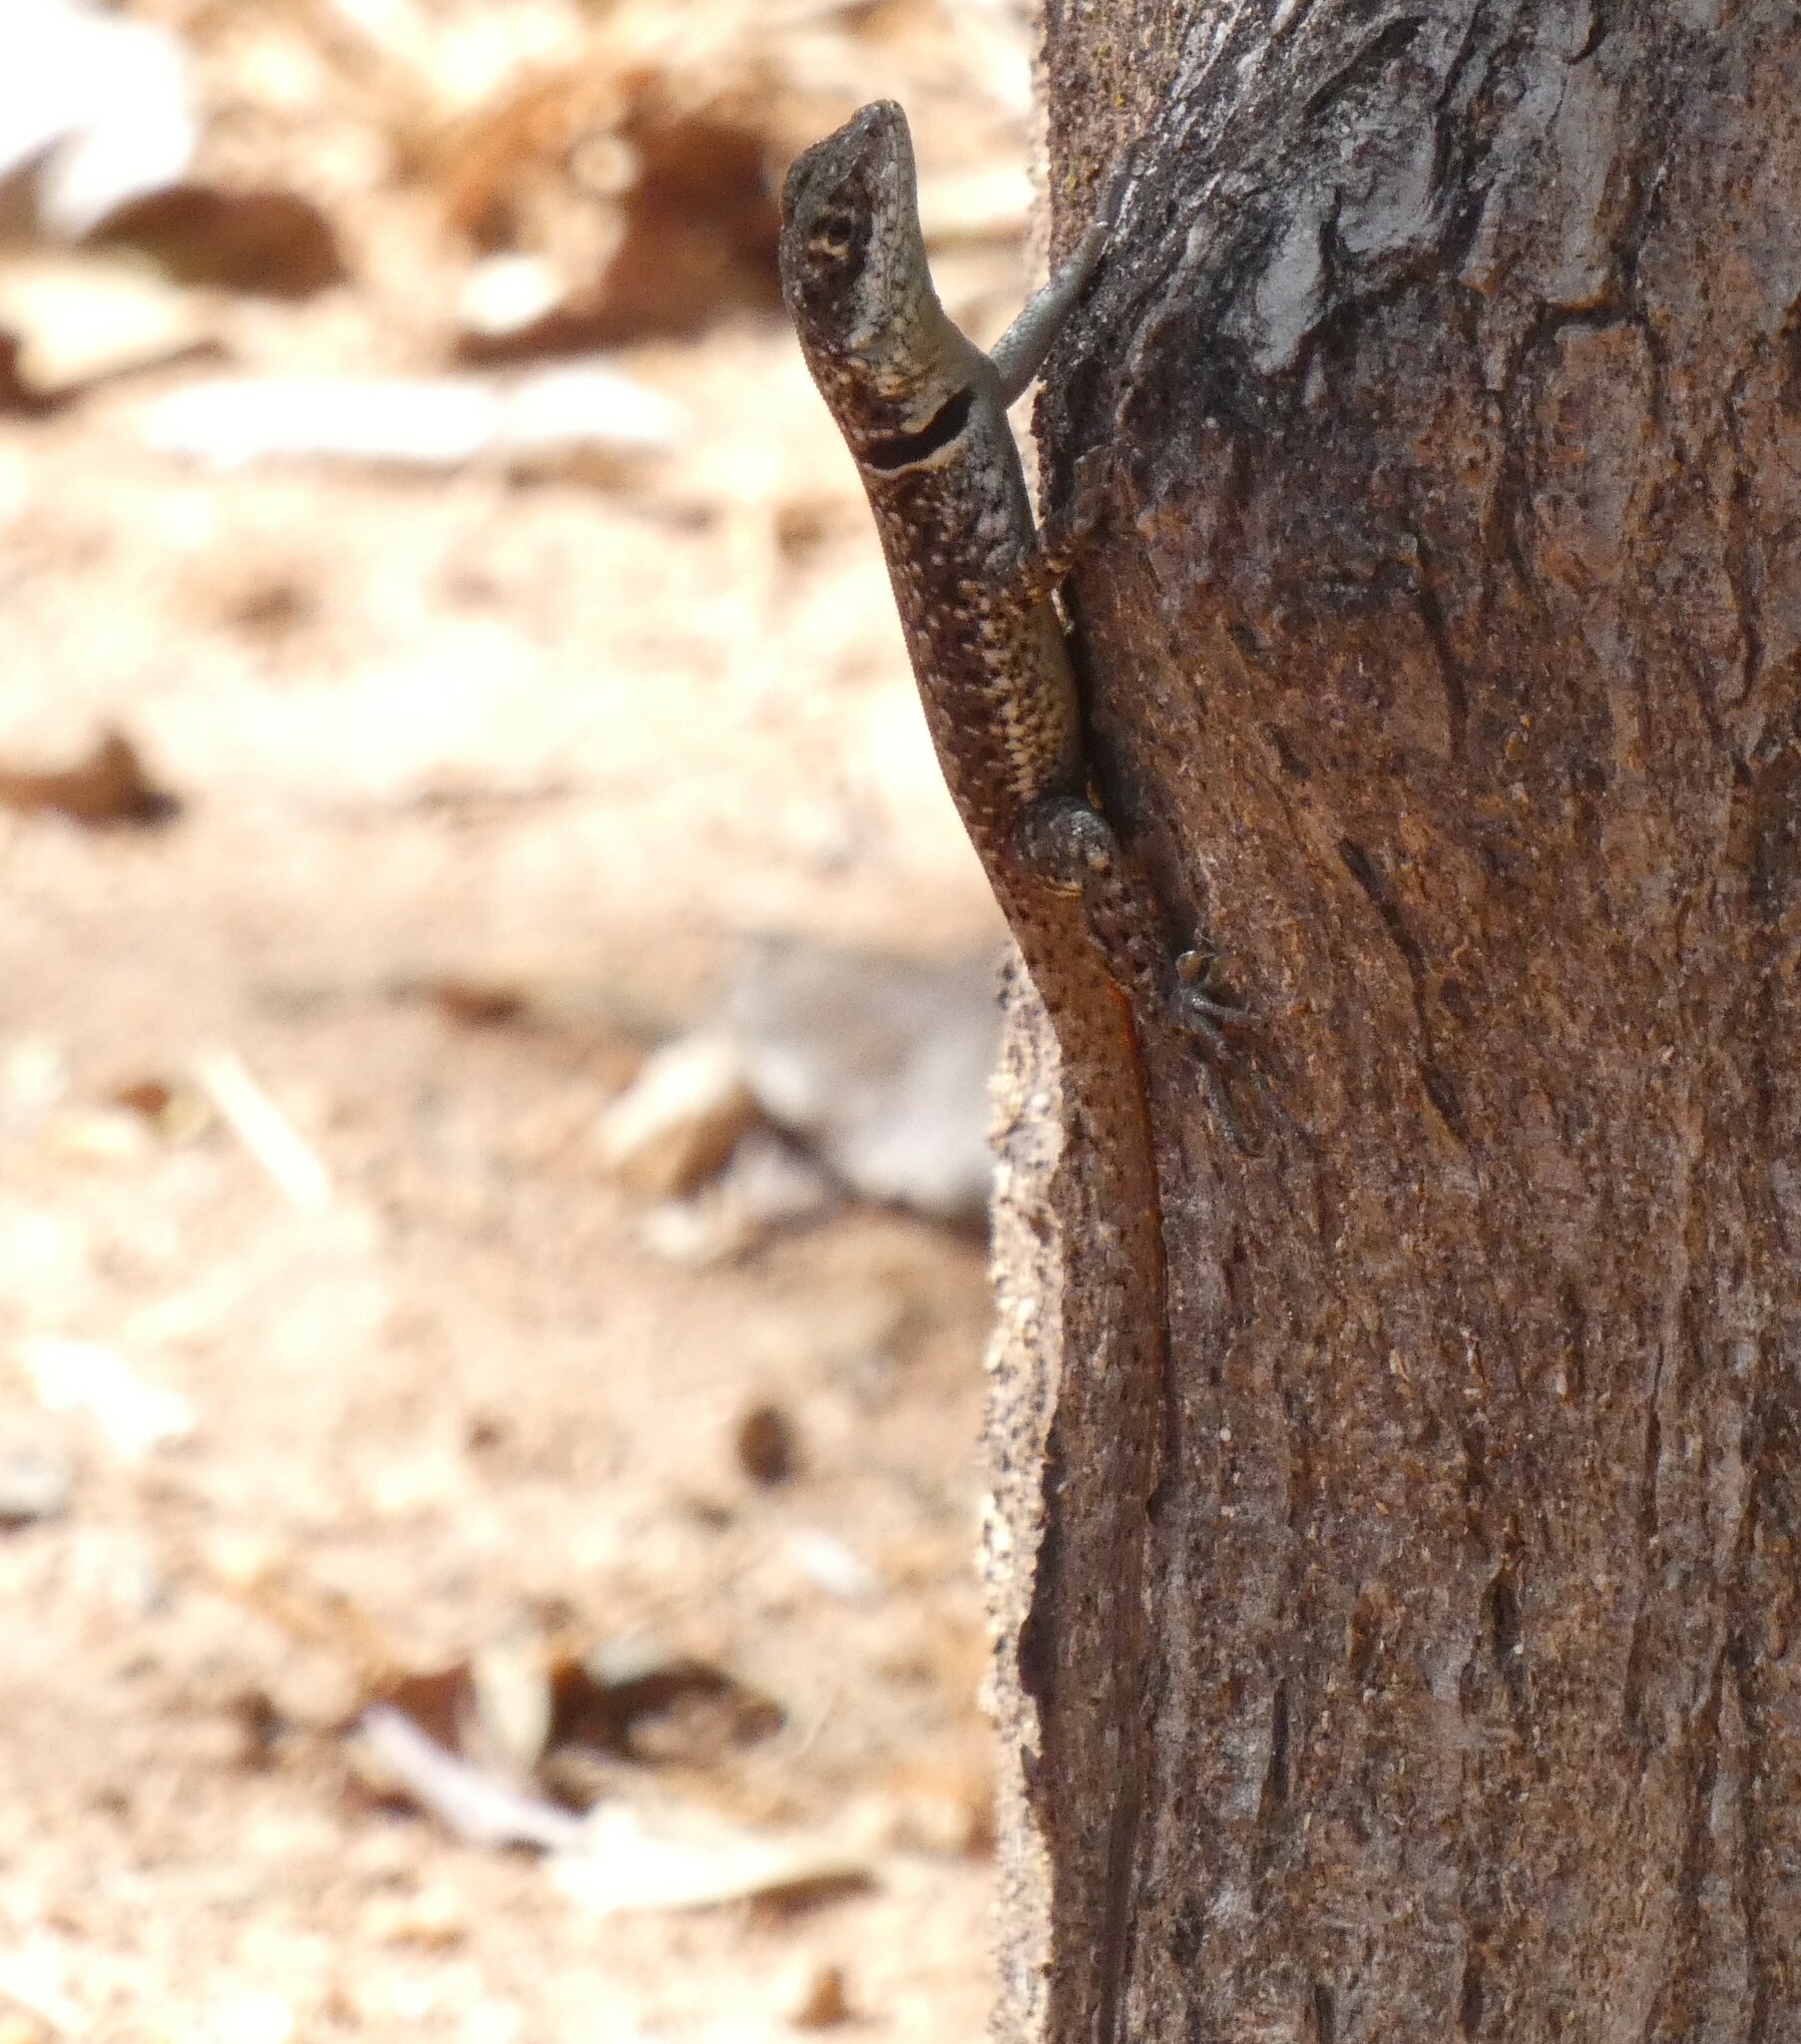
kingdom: Animalia
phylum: Chordata
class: Squamata
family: Tropiduridae
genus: Tropidurus
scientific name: Tropidurus torquatus
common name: Amazon lava lizard
